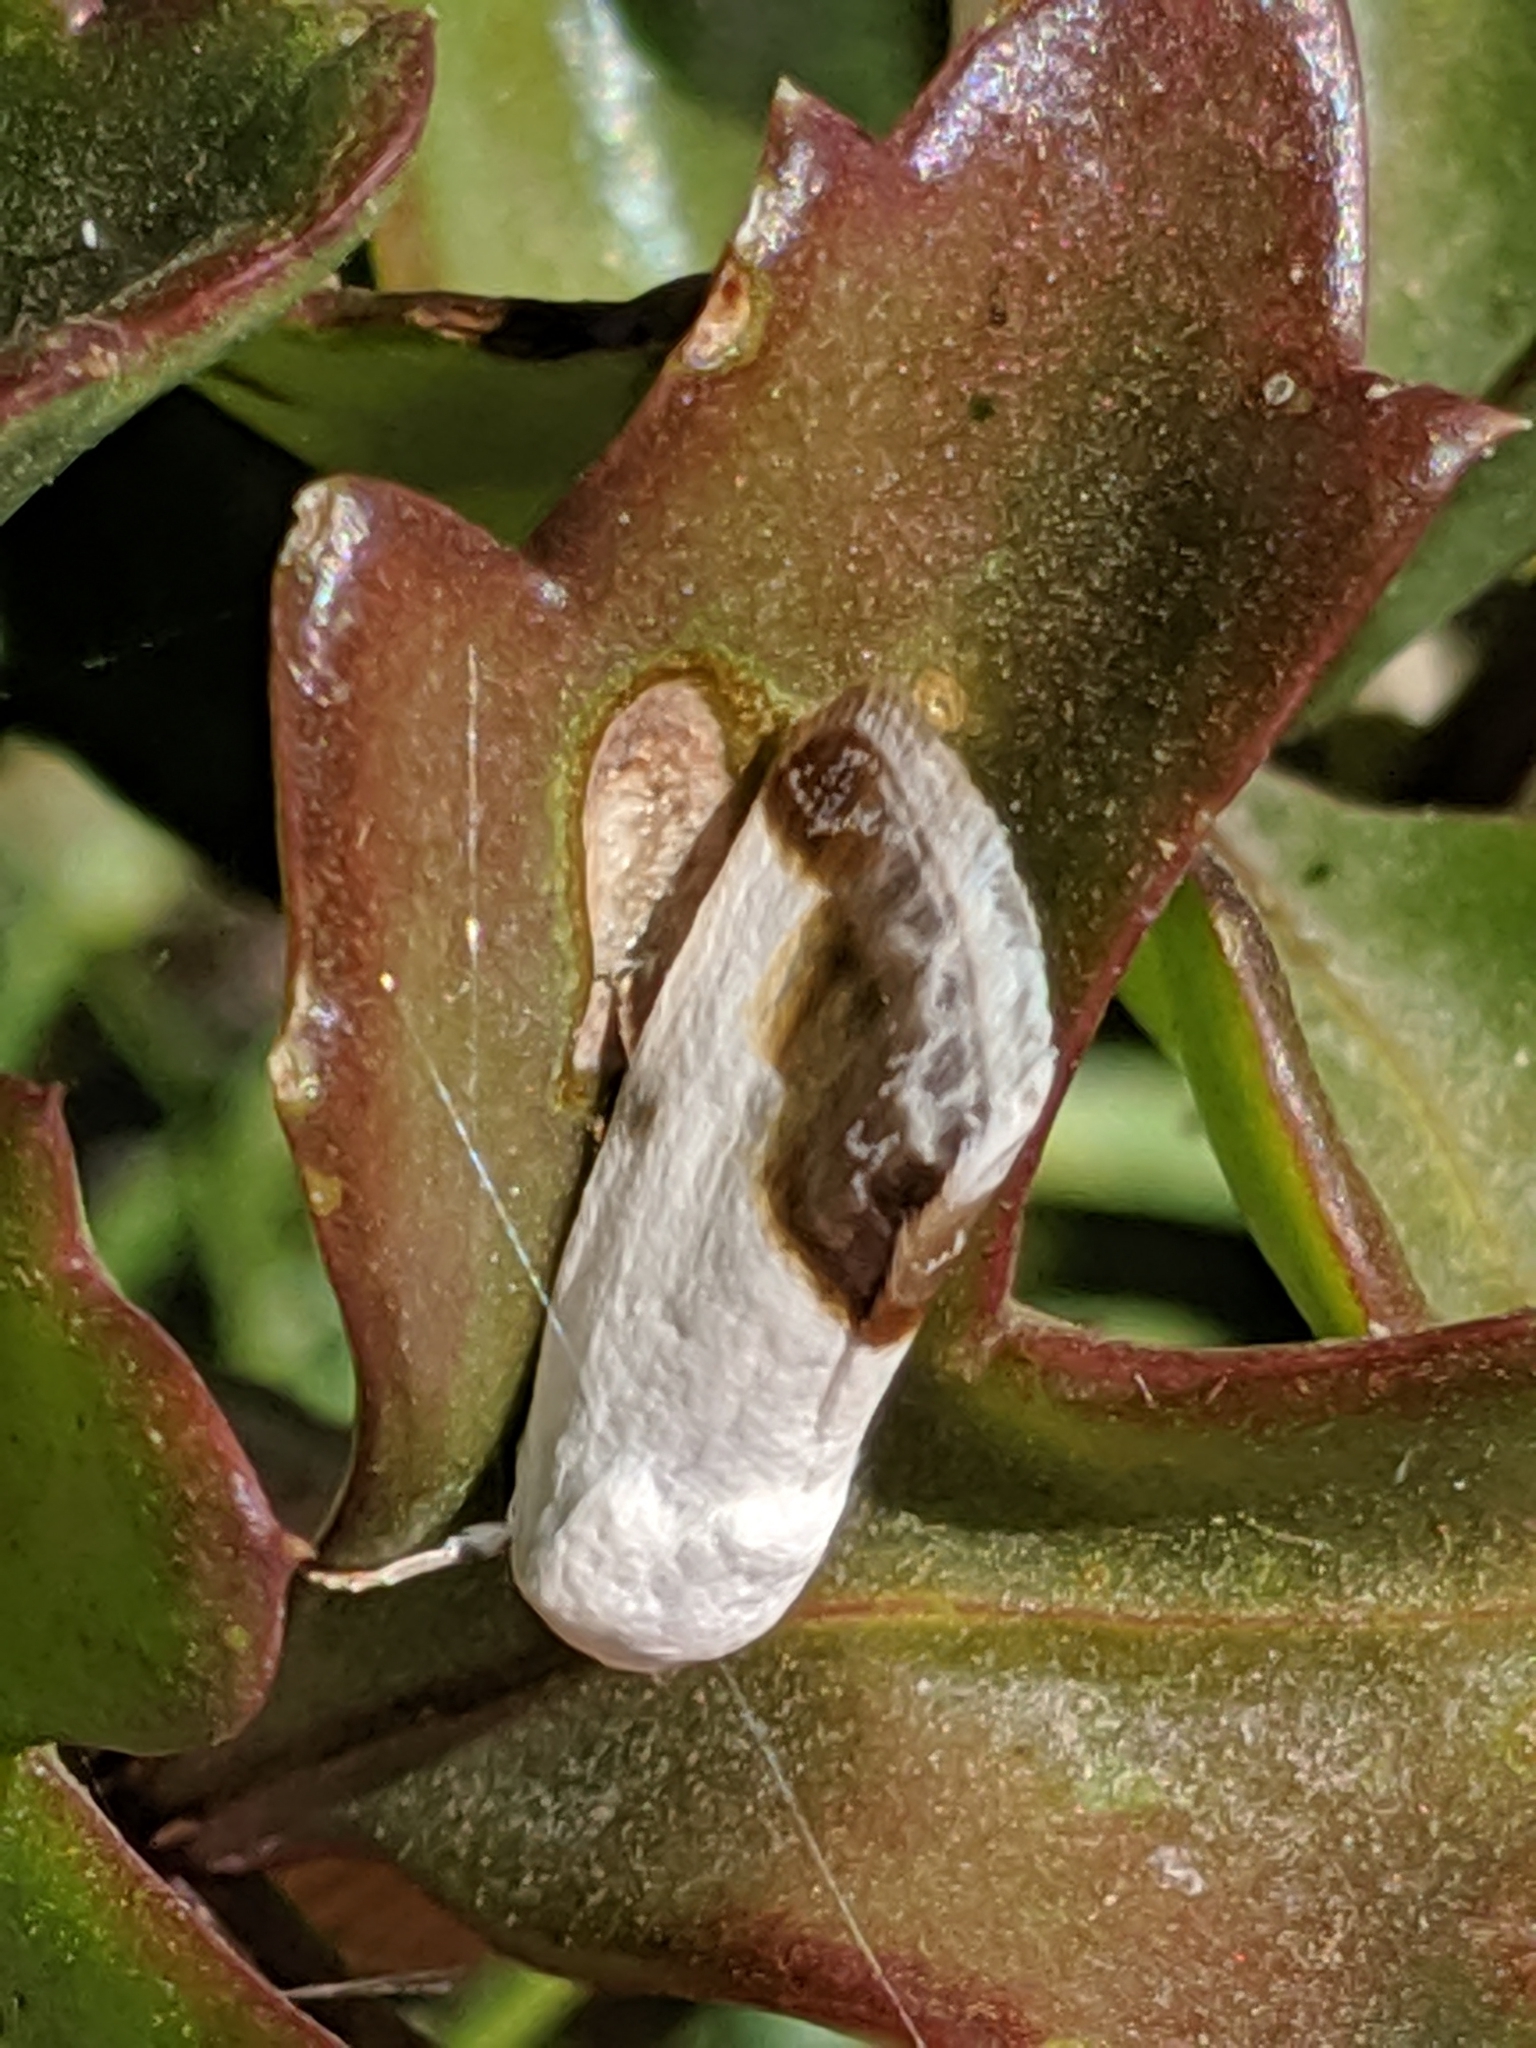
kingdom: Animalia
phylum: Arthropoda
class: Insecta
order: Lepidoptera
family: Noctuidae
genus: Acontia
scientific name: Acontia cretata
